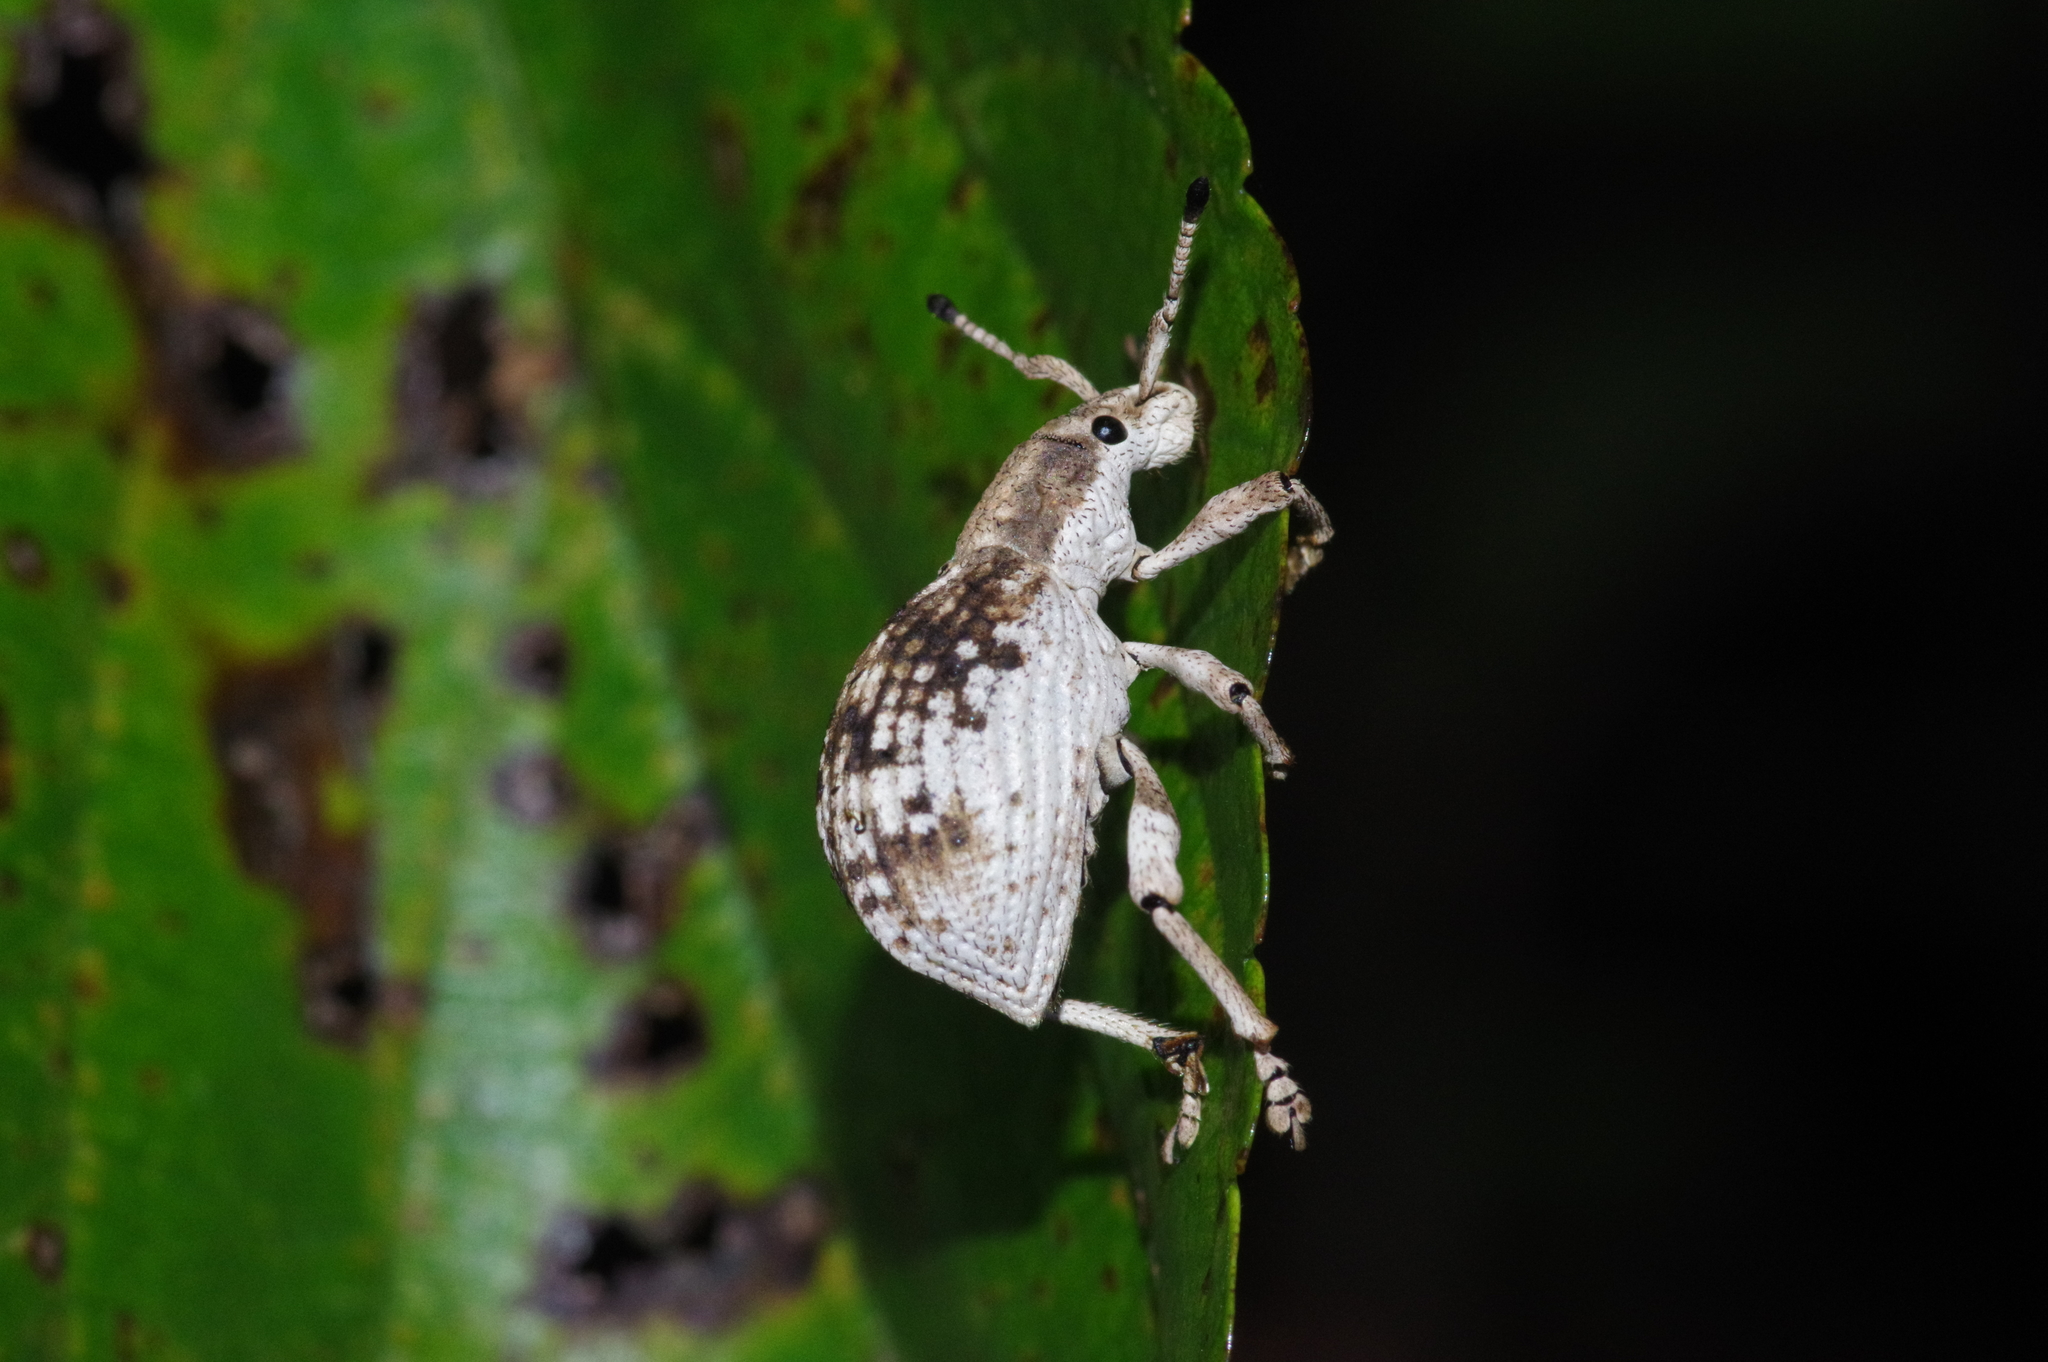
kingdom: Animalia
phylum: Arthropoda
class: Insecta
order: Coleoptera
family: Curculionidae
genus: Episomus
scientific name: Episomus mori
